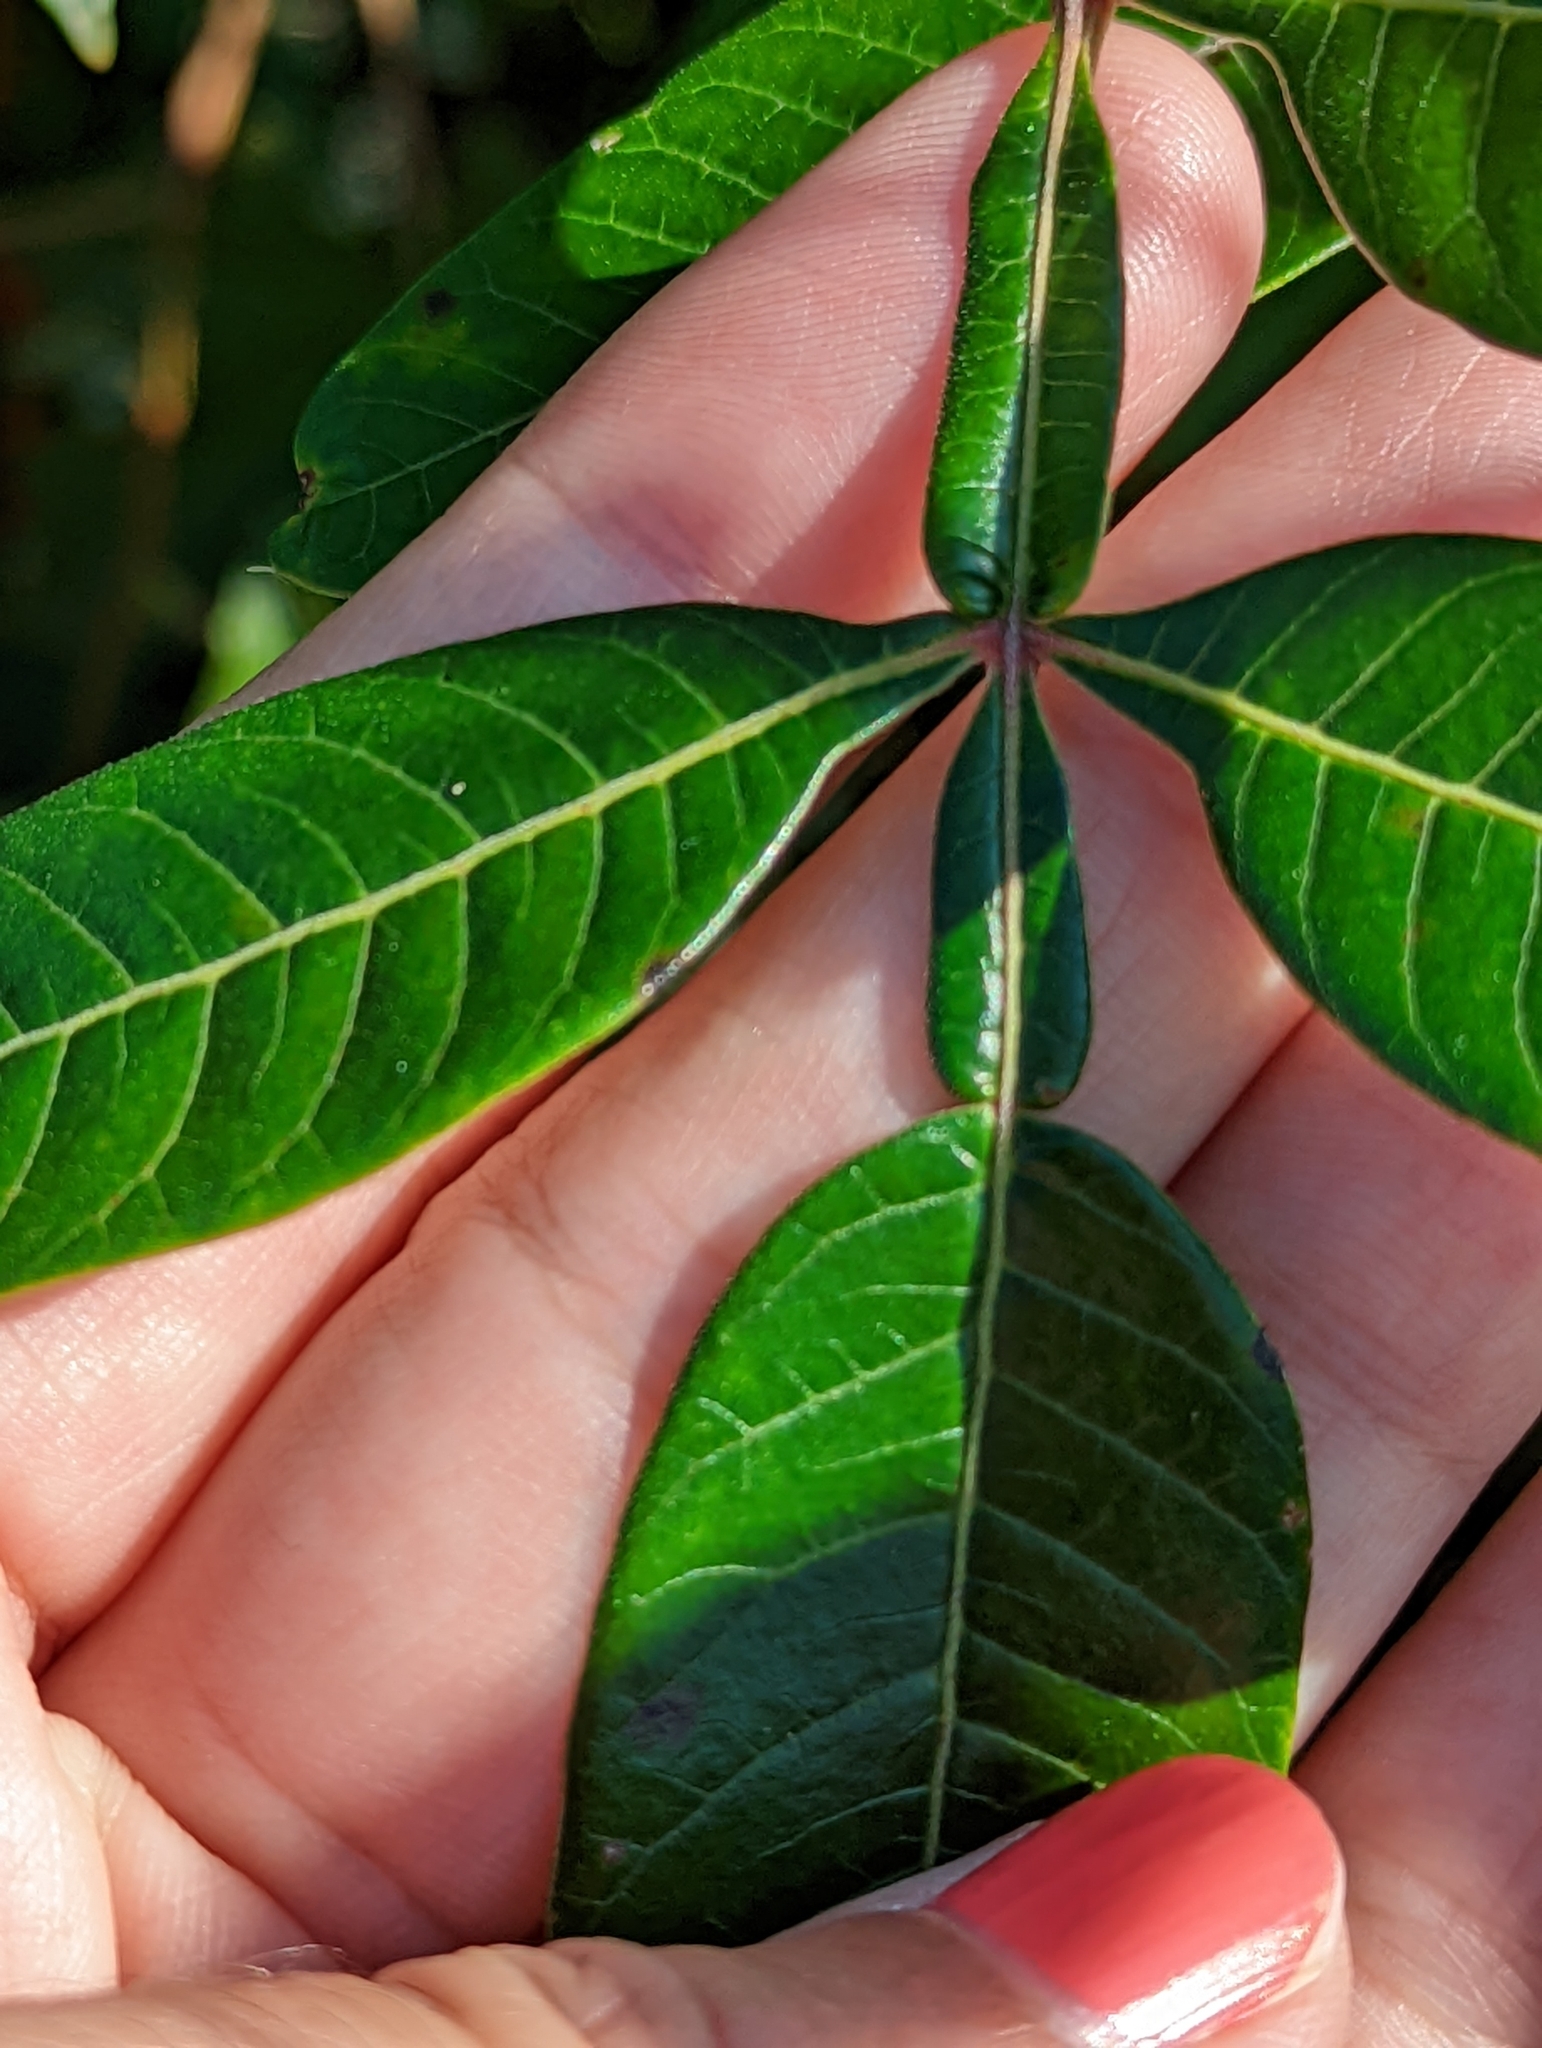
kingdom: Plantae
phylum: Tracheophyta
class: Magnoliopsida
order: Sapindales
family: Anacardiaceae
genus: Rhus
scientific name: Rhus copallina
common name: Shining sumac
